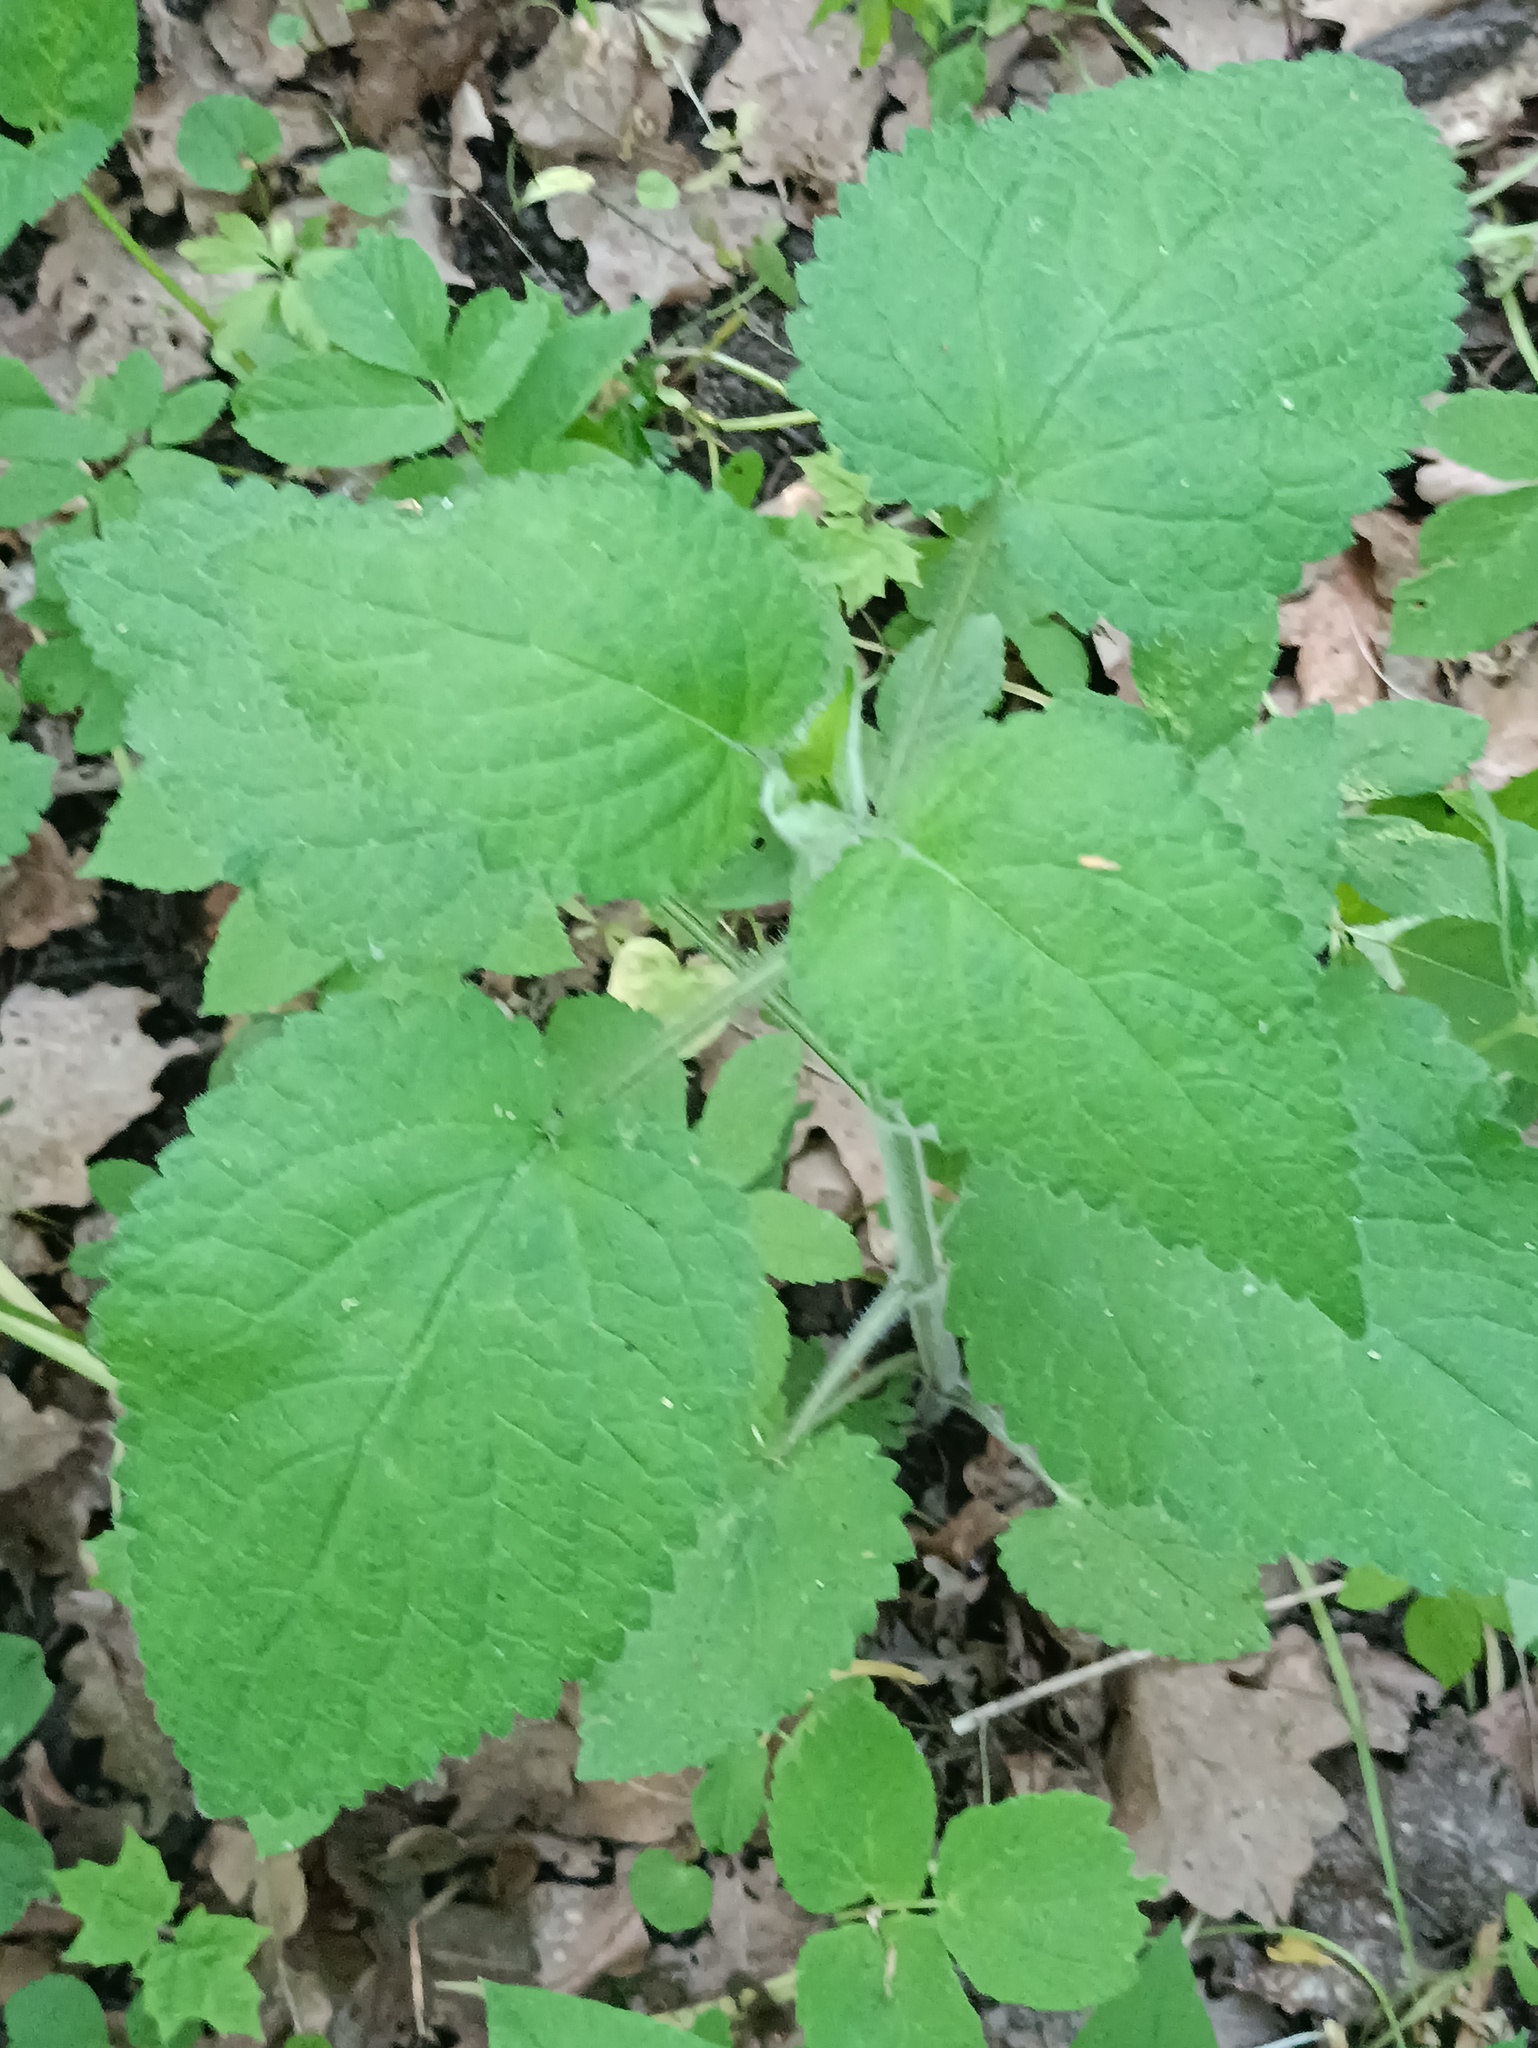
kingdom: Plantae
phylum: Tracheophyta
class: Magnoliopsida
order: Lamiales
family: Lamiaceae
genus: Stachys
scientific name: Stachys sylvatica
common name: Hedge woundwort
